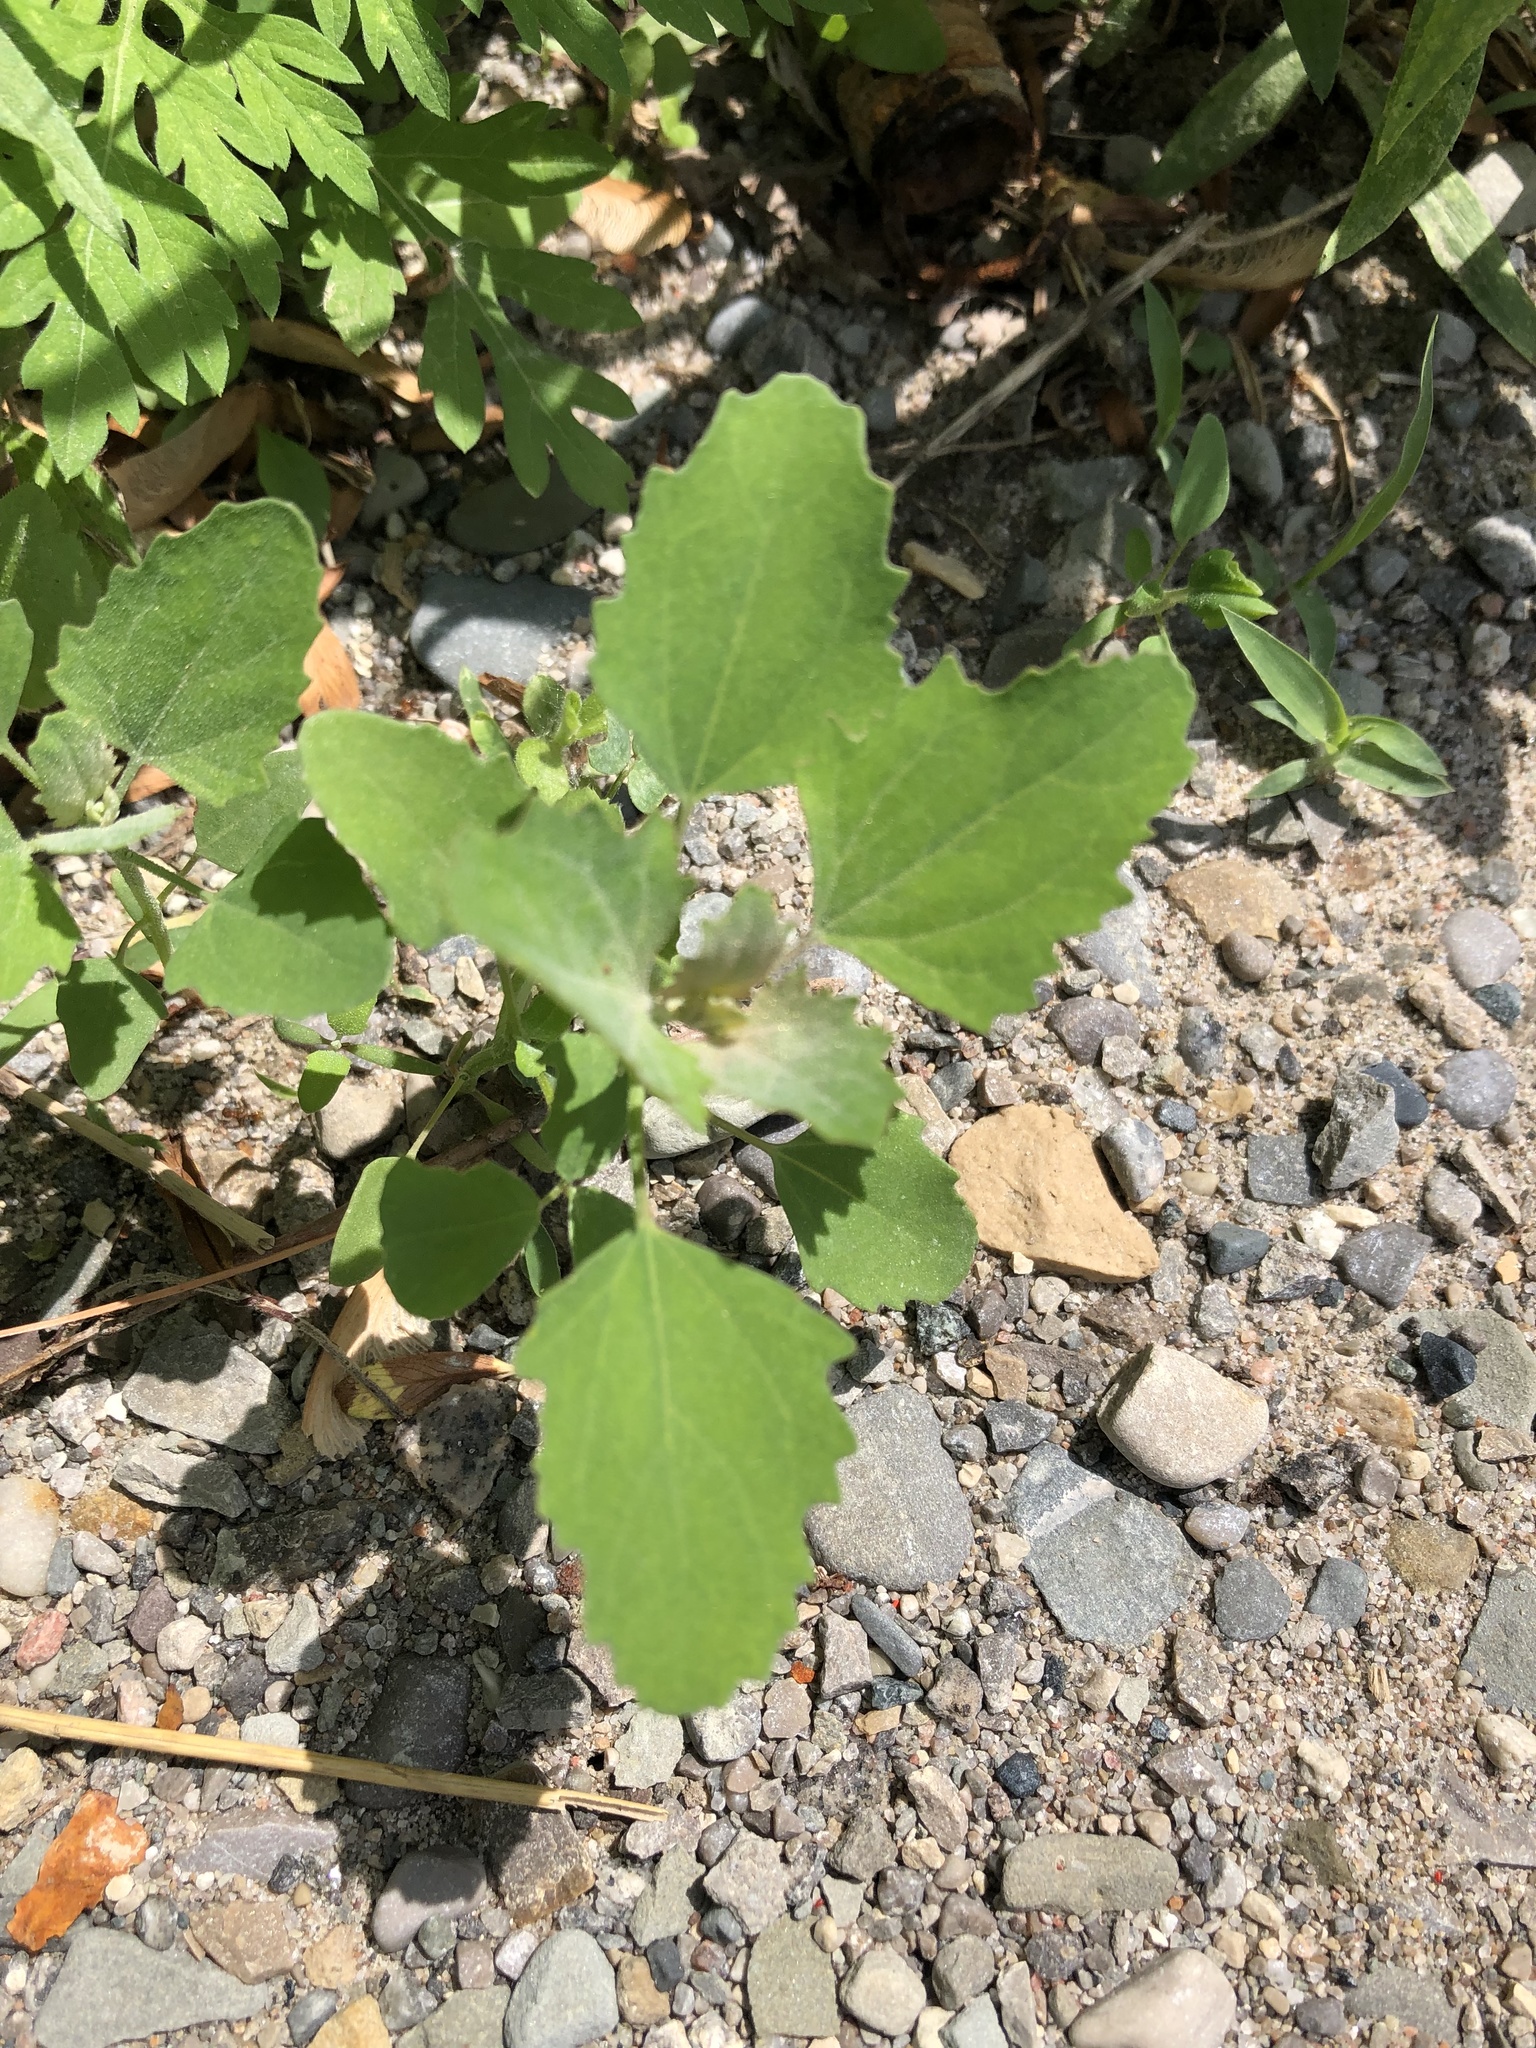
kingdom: Plantae
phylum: Tracheophyta
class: Magnoliopsida
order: Caryophyllales
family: Amaranthaceae
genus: Chenopodium
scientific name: Chenopodium album
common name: Fat-hen
